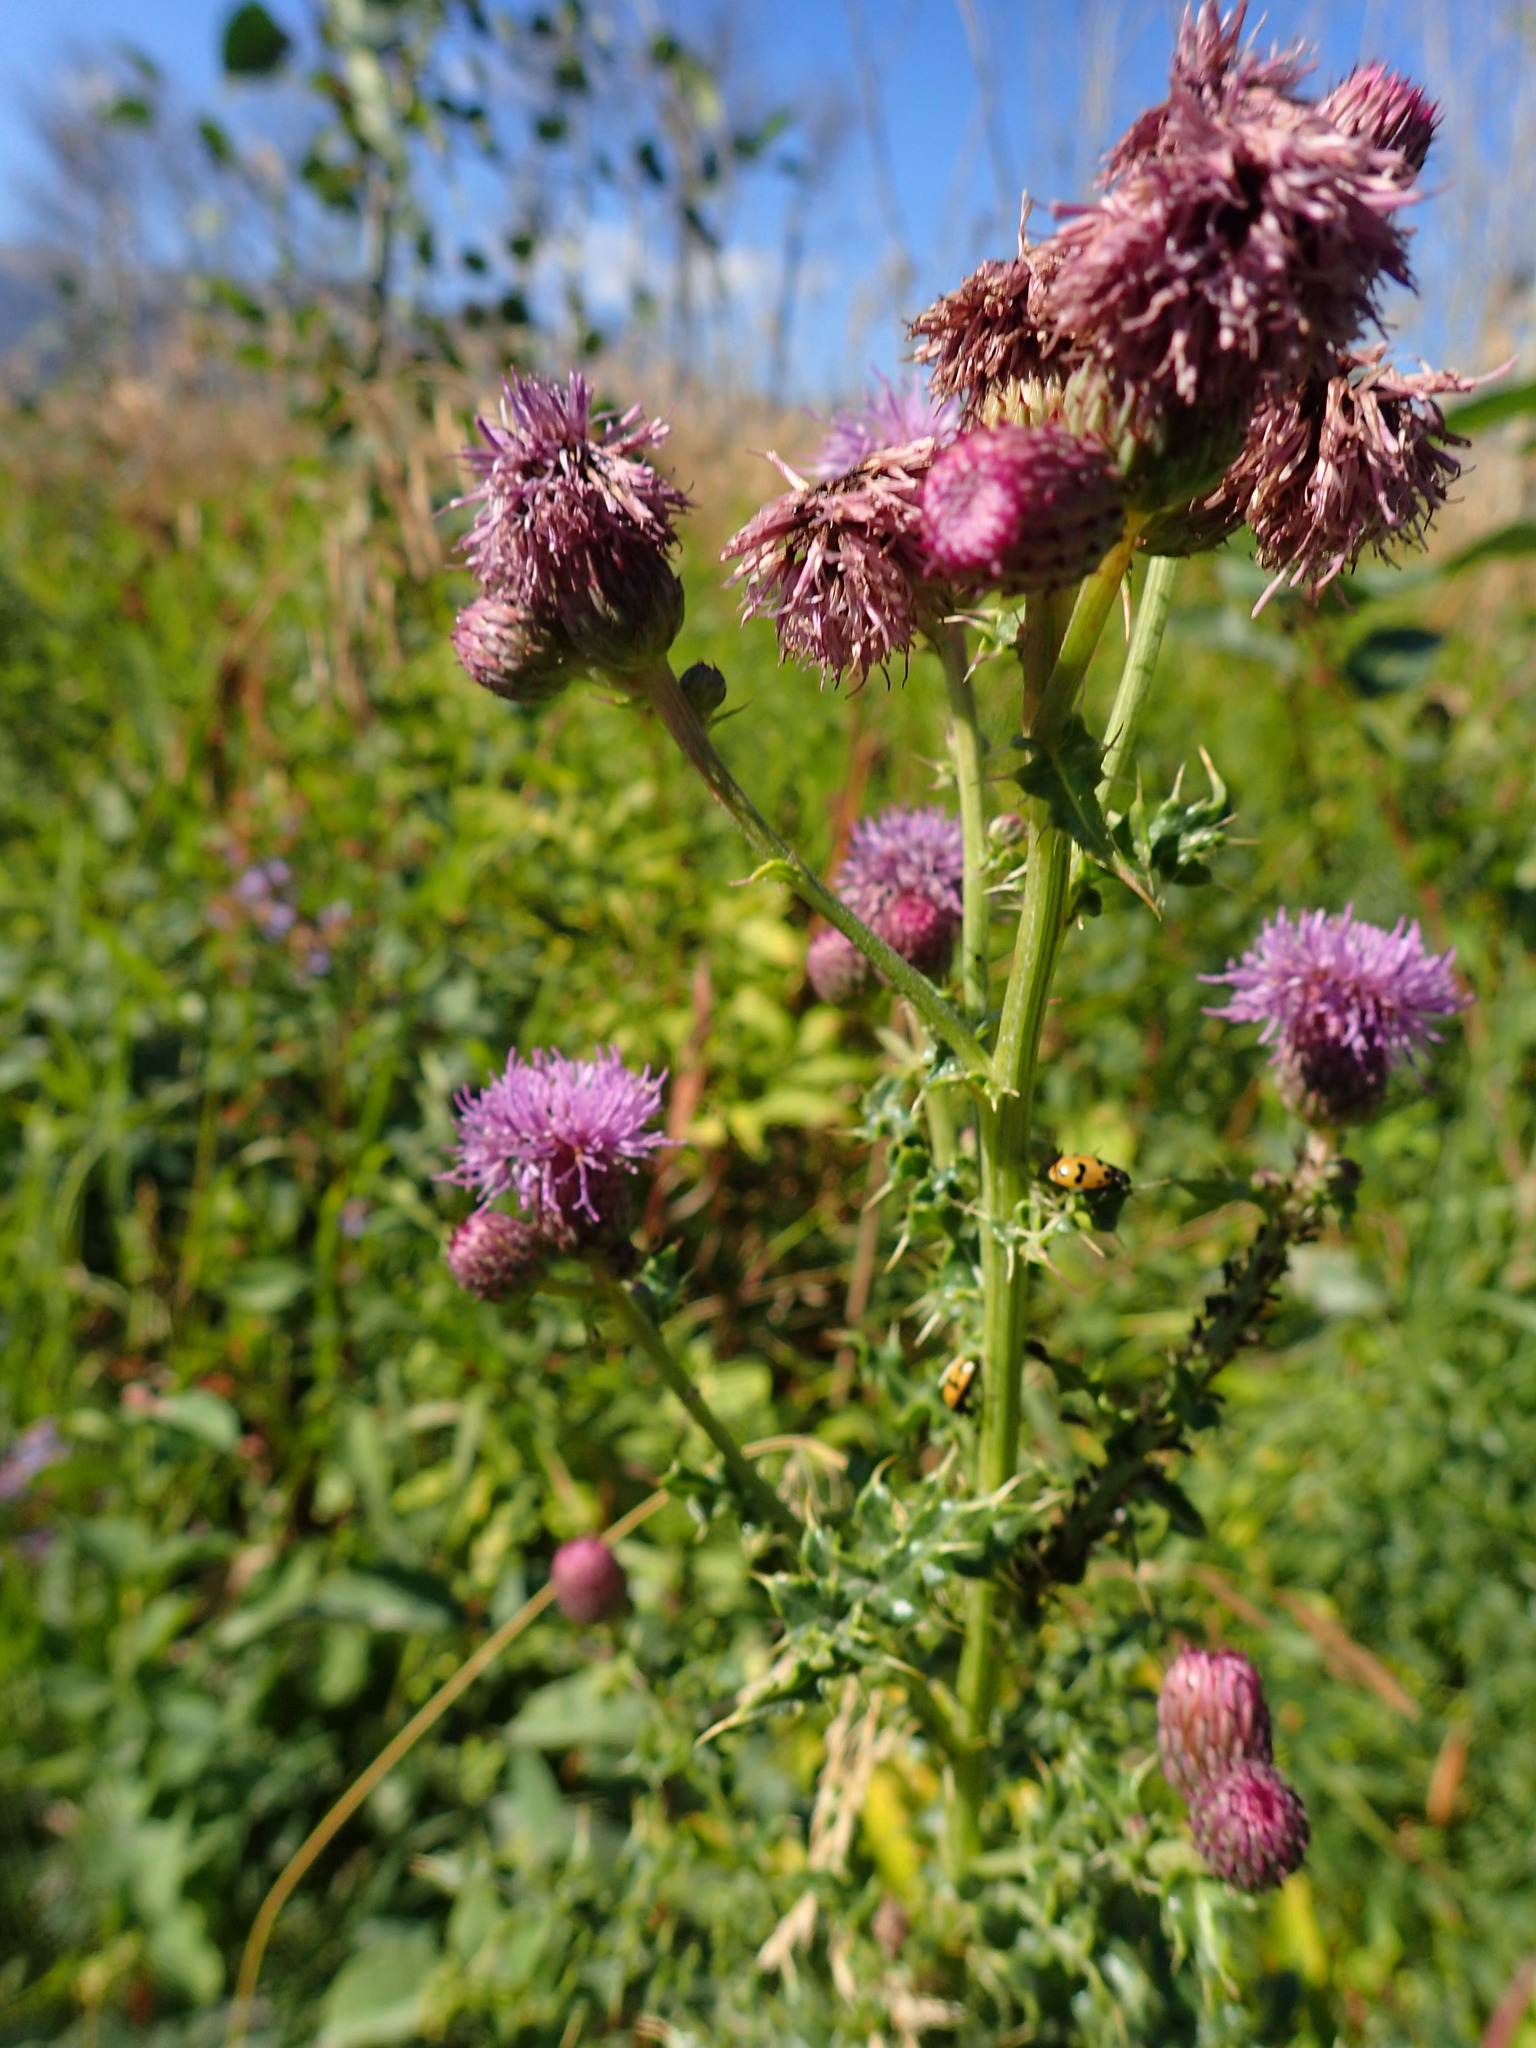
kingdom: Plantae
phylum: Tracheophyta
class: Magnoliopsida
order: Asterales
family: Asteraceae
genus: Cirsium
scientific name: Cirsium arvense
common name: Creeping thistle
